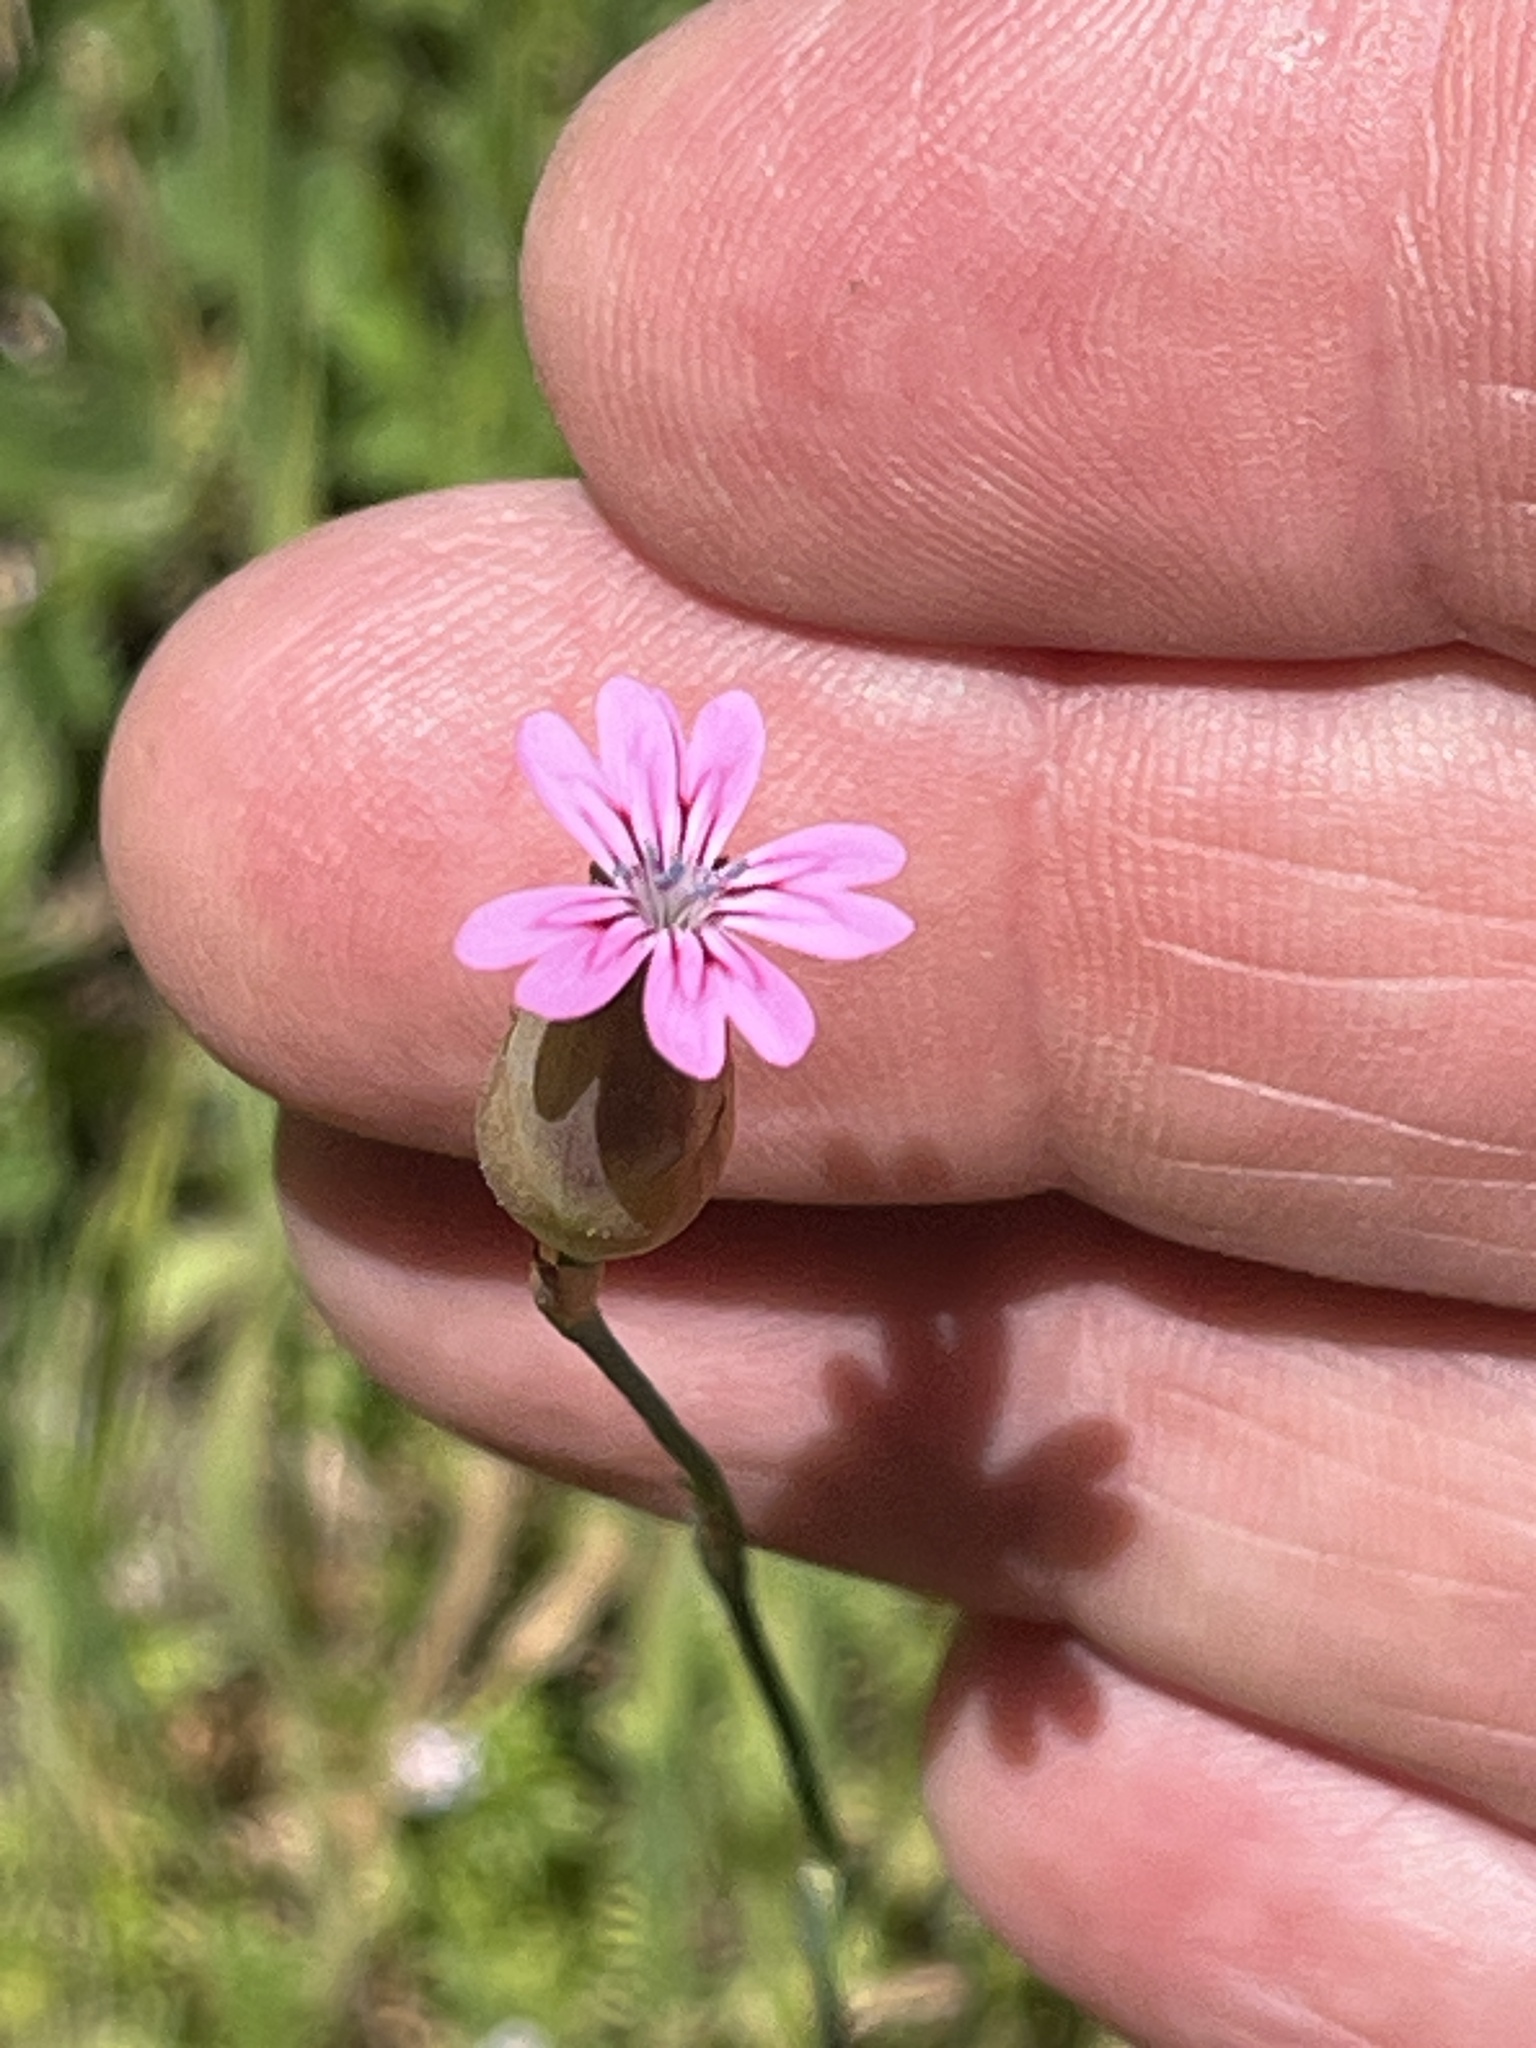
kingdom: Plantae
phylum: Tracheophyta
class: Magnoliopsida
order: Caryophyllales
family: Caryophyllaceae
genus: Petrorhagia
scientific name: Petrorhagia dubia
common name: Hairypink
